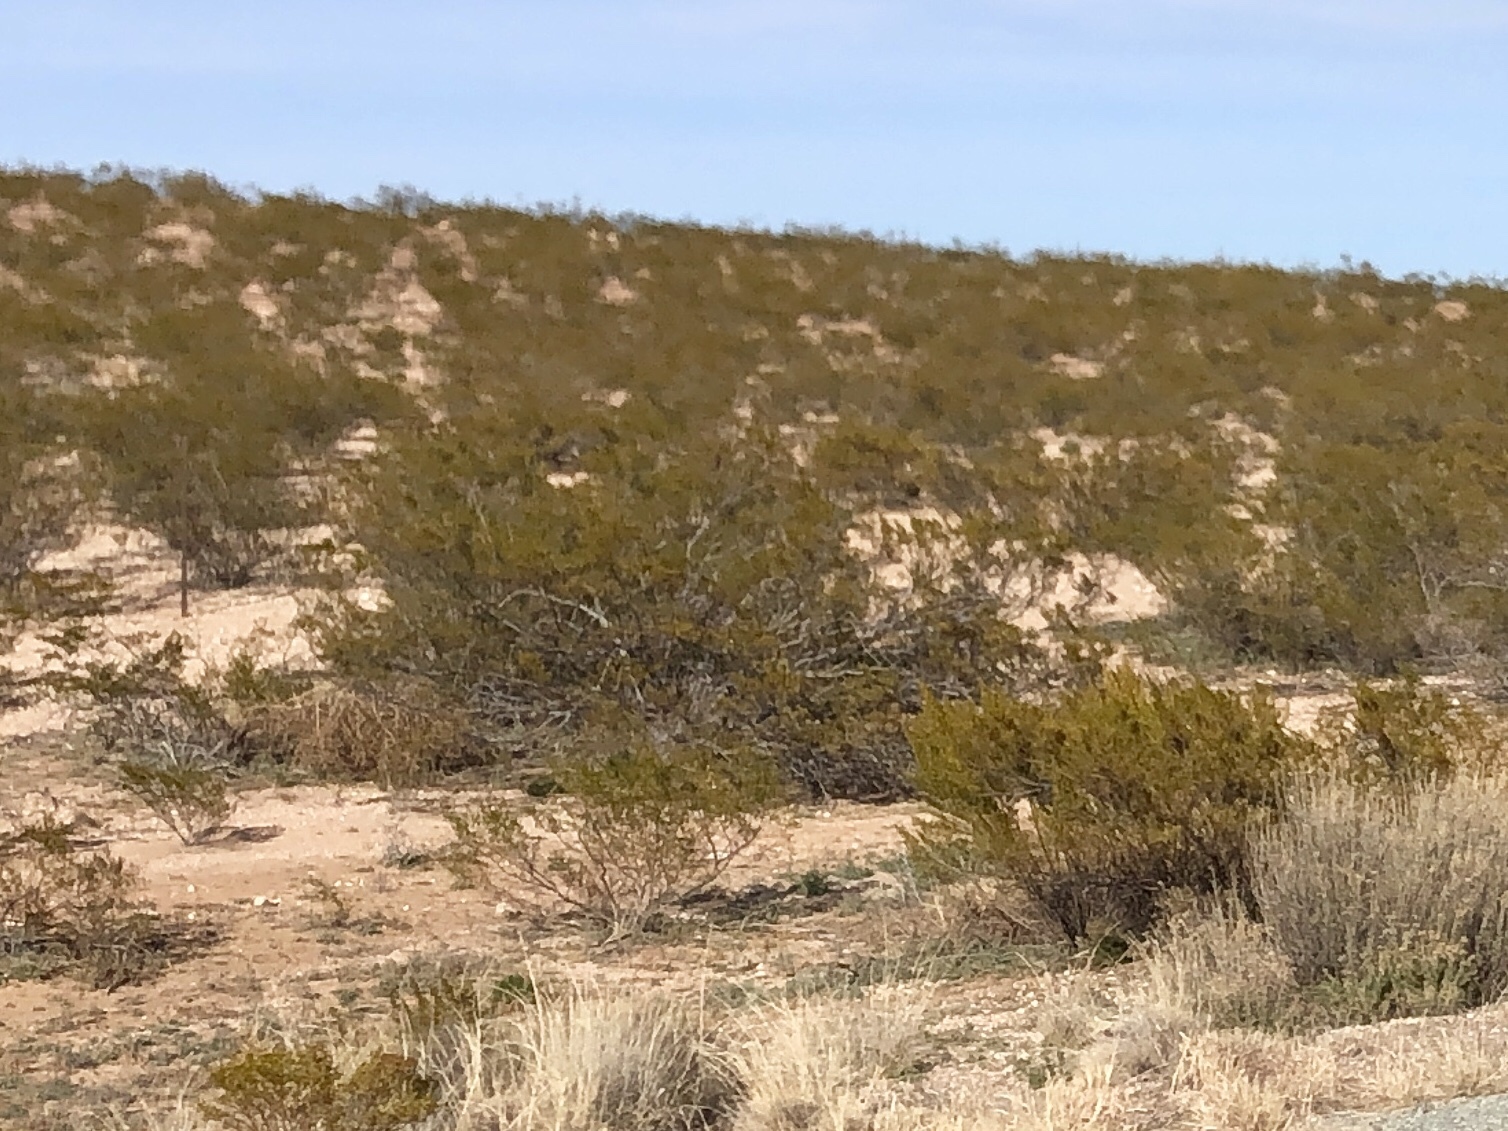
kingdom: Plantae
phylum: Tracheophyta
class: Magnoliopsida
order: Zygophyllales
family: Zygophyllaceae
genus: Larrea
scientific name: Larrea tridentata
